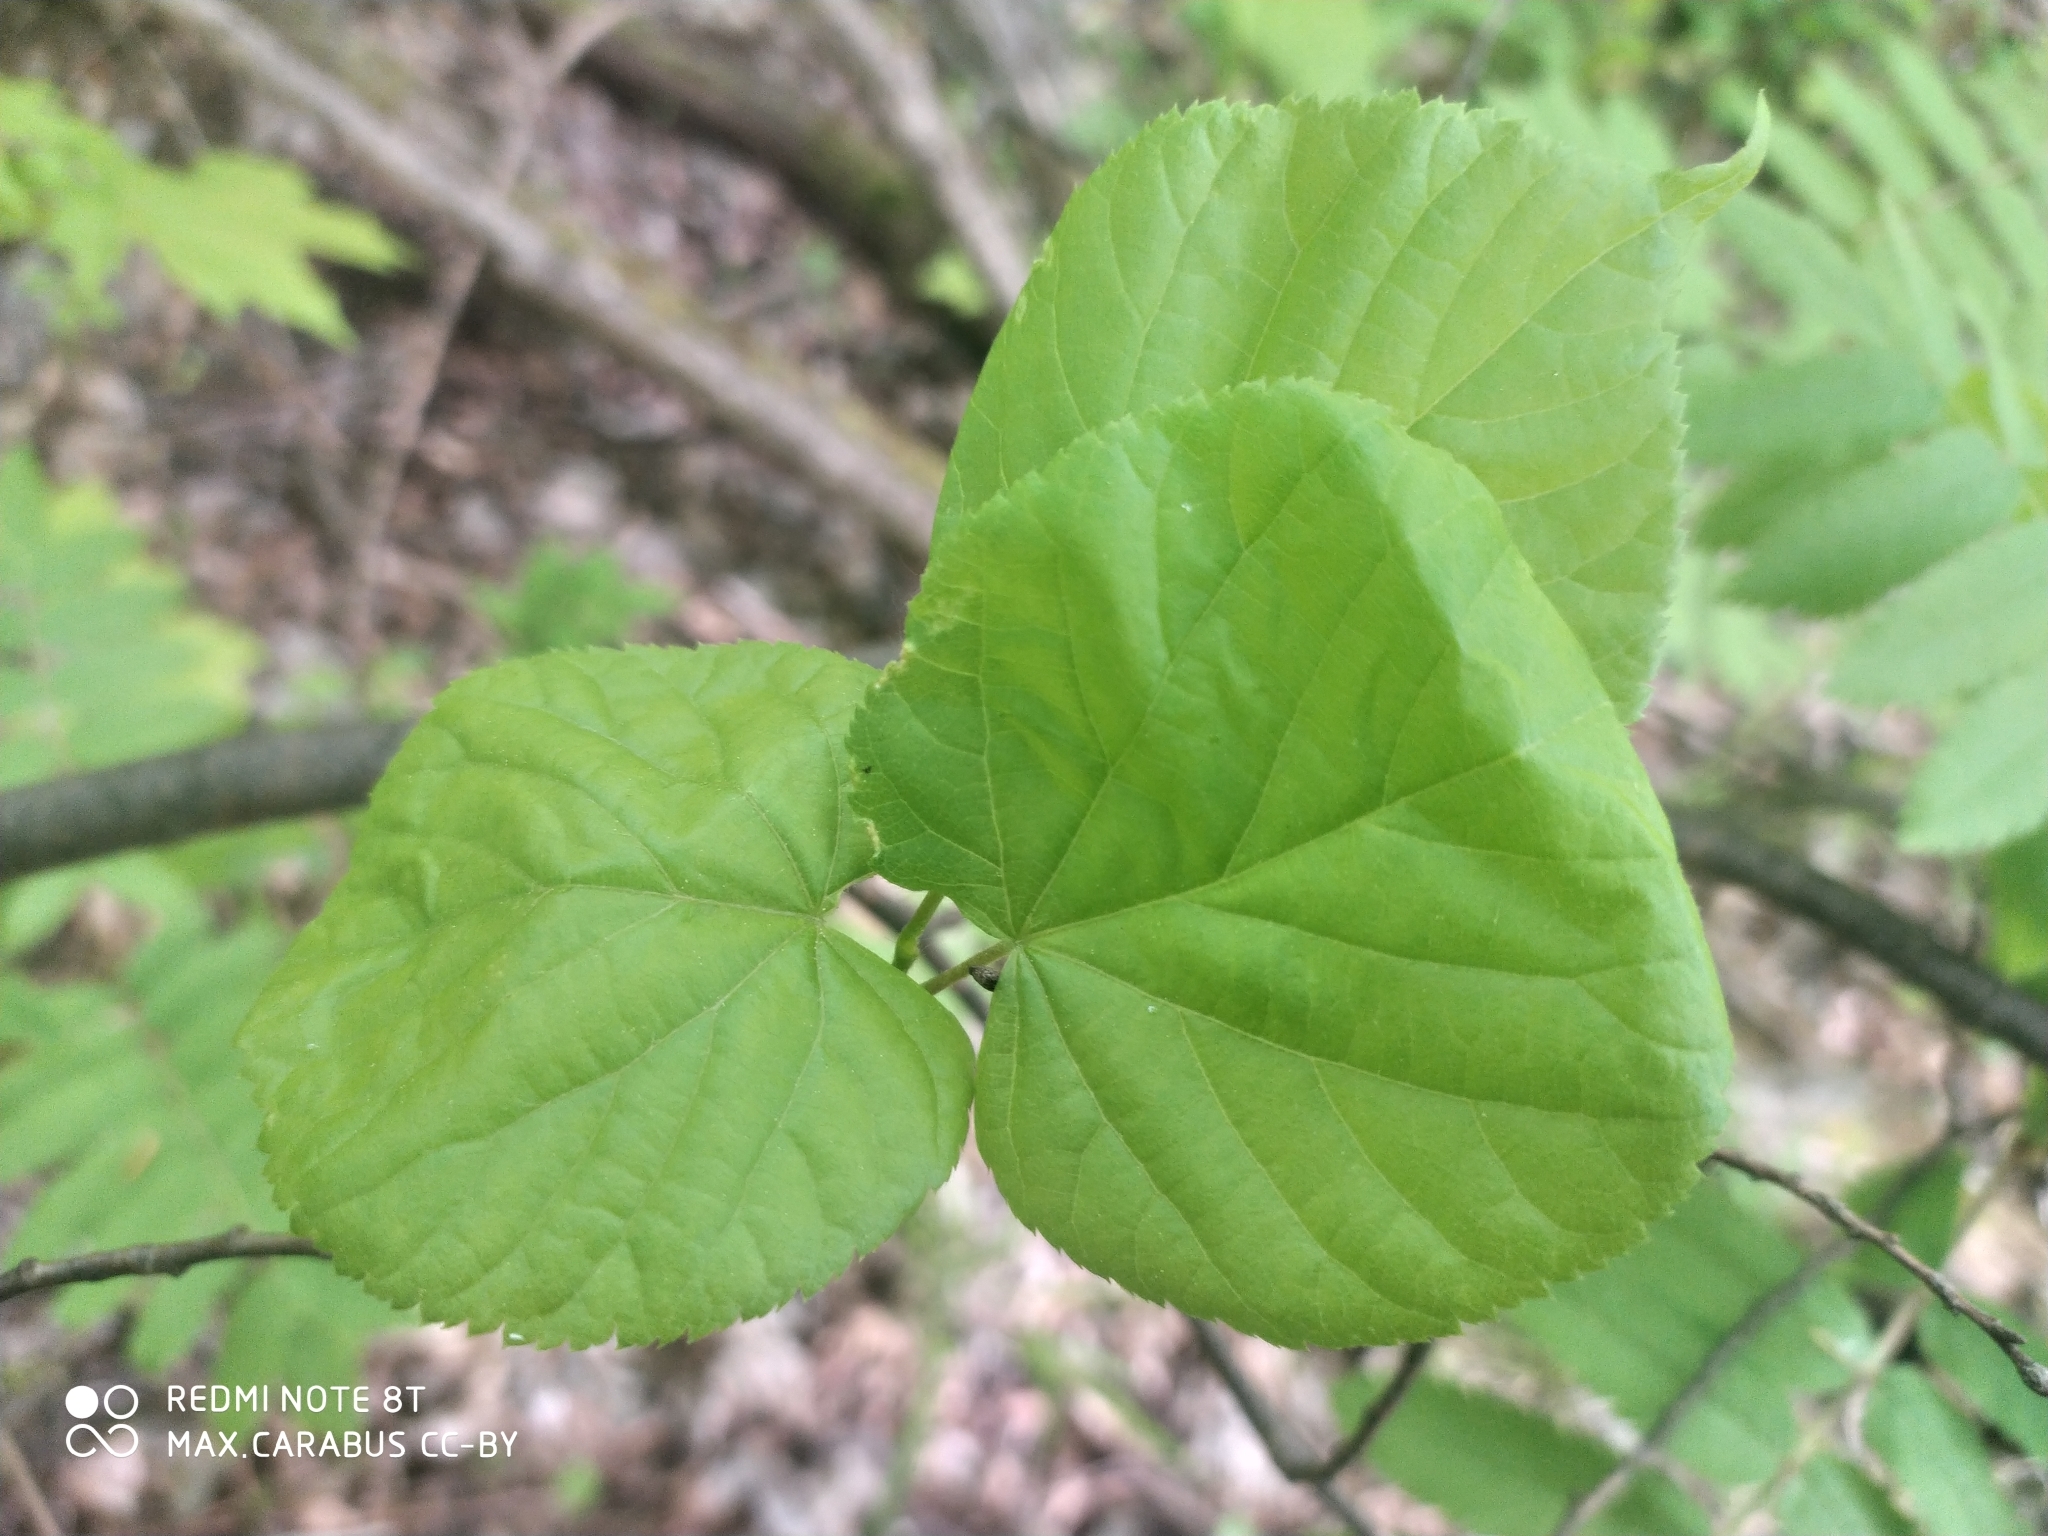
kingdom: Plantae
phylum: Tracheophyta
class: Magnoliopsida
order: Malvales
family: Malvaceae
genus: Tilia
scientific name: Tilia cordata
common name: Small-leaved lime
